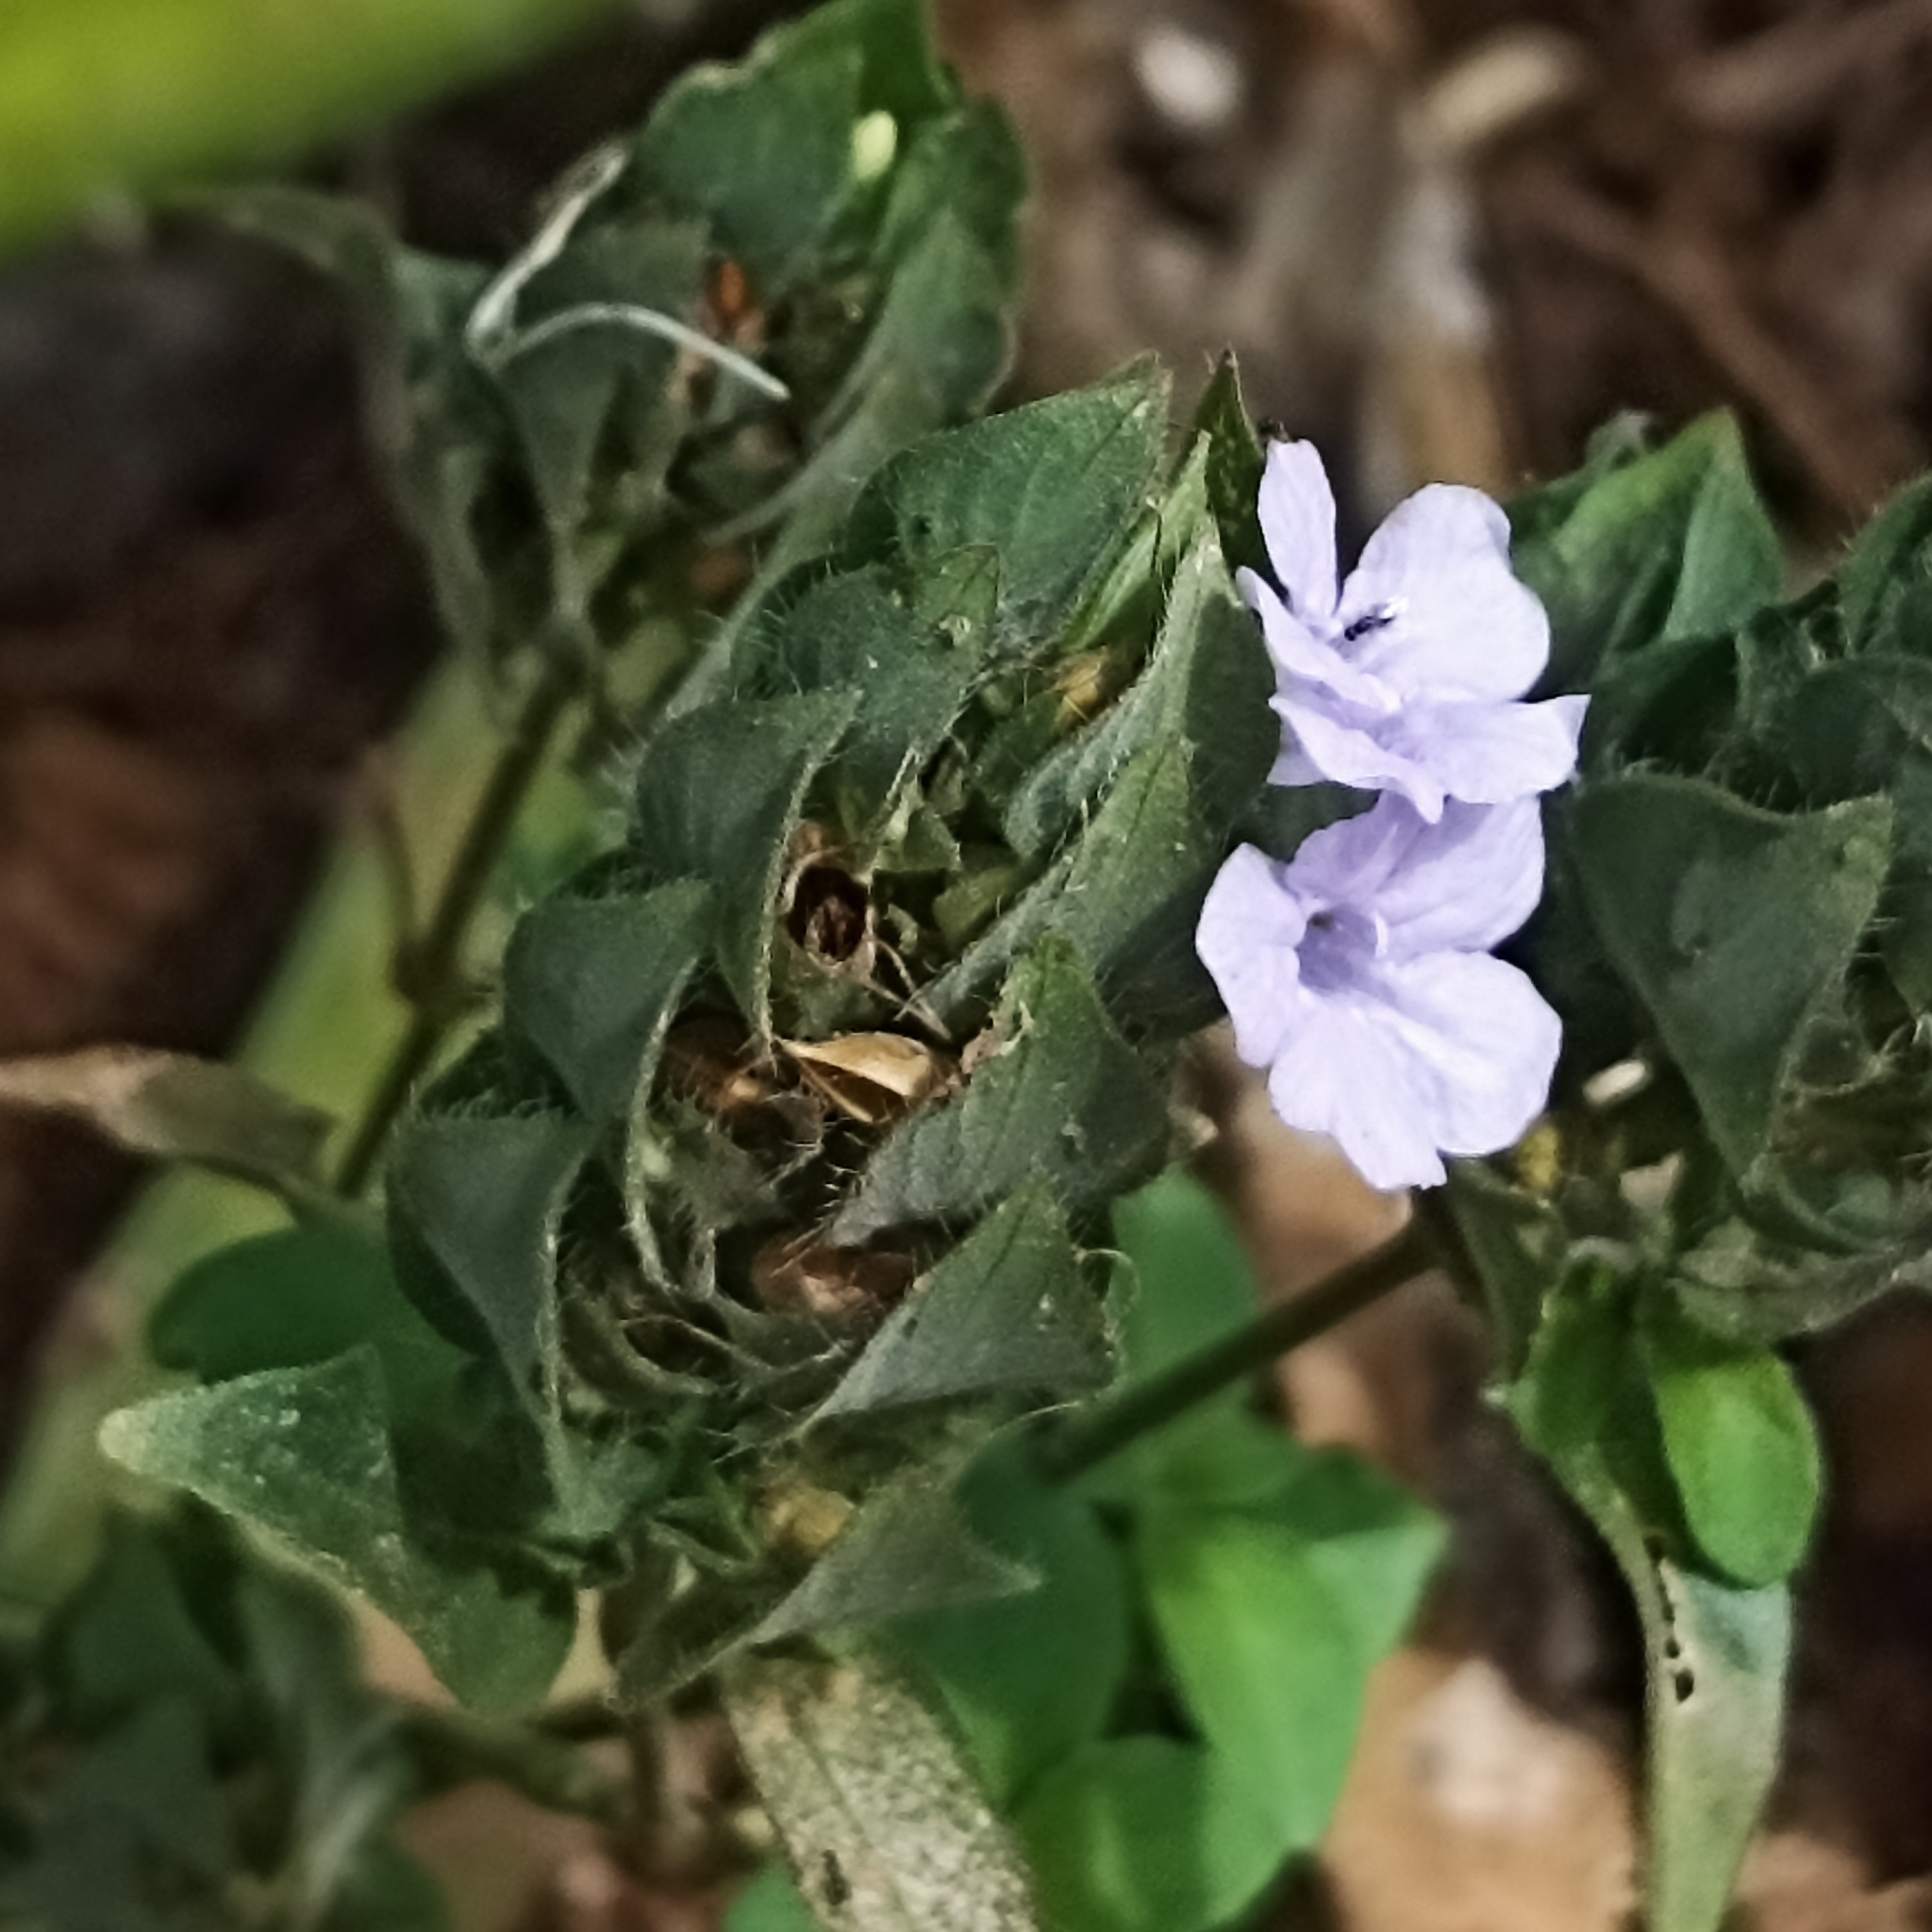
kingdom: Plantae
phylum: Tracheophyta
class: Magnoliopsida
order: Lamiales
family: Acanthaceae
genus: Ruellia
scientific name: Ruellia blechum
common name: Browne's blechum
